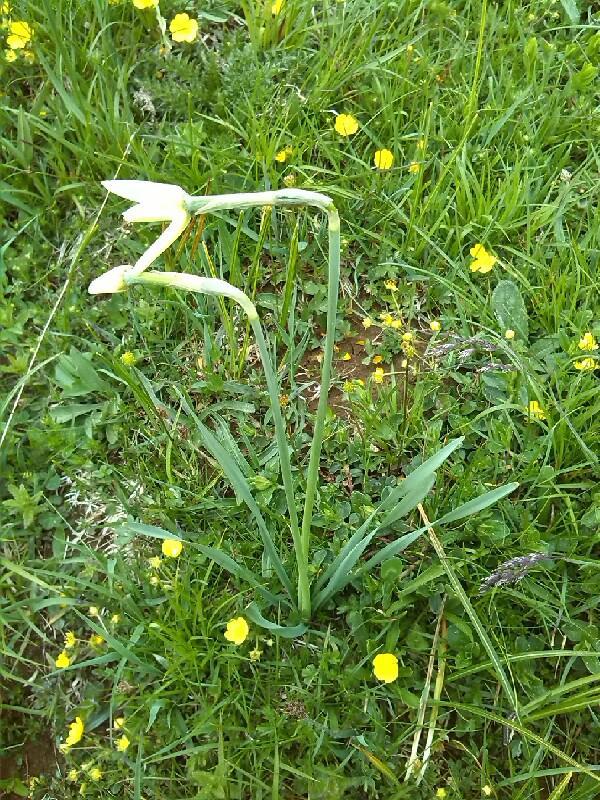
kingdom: Plantae
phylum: Tracheophyta
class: Liliopsida
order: Asparagales
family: Amaryllidaceae
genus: Narcissus
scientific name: Narcissus poeticus
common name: Pheasant's-eye daffodil
